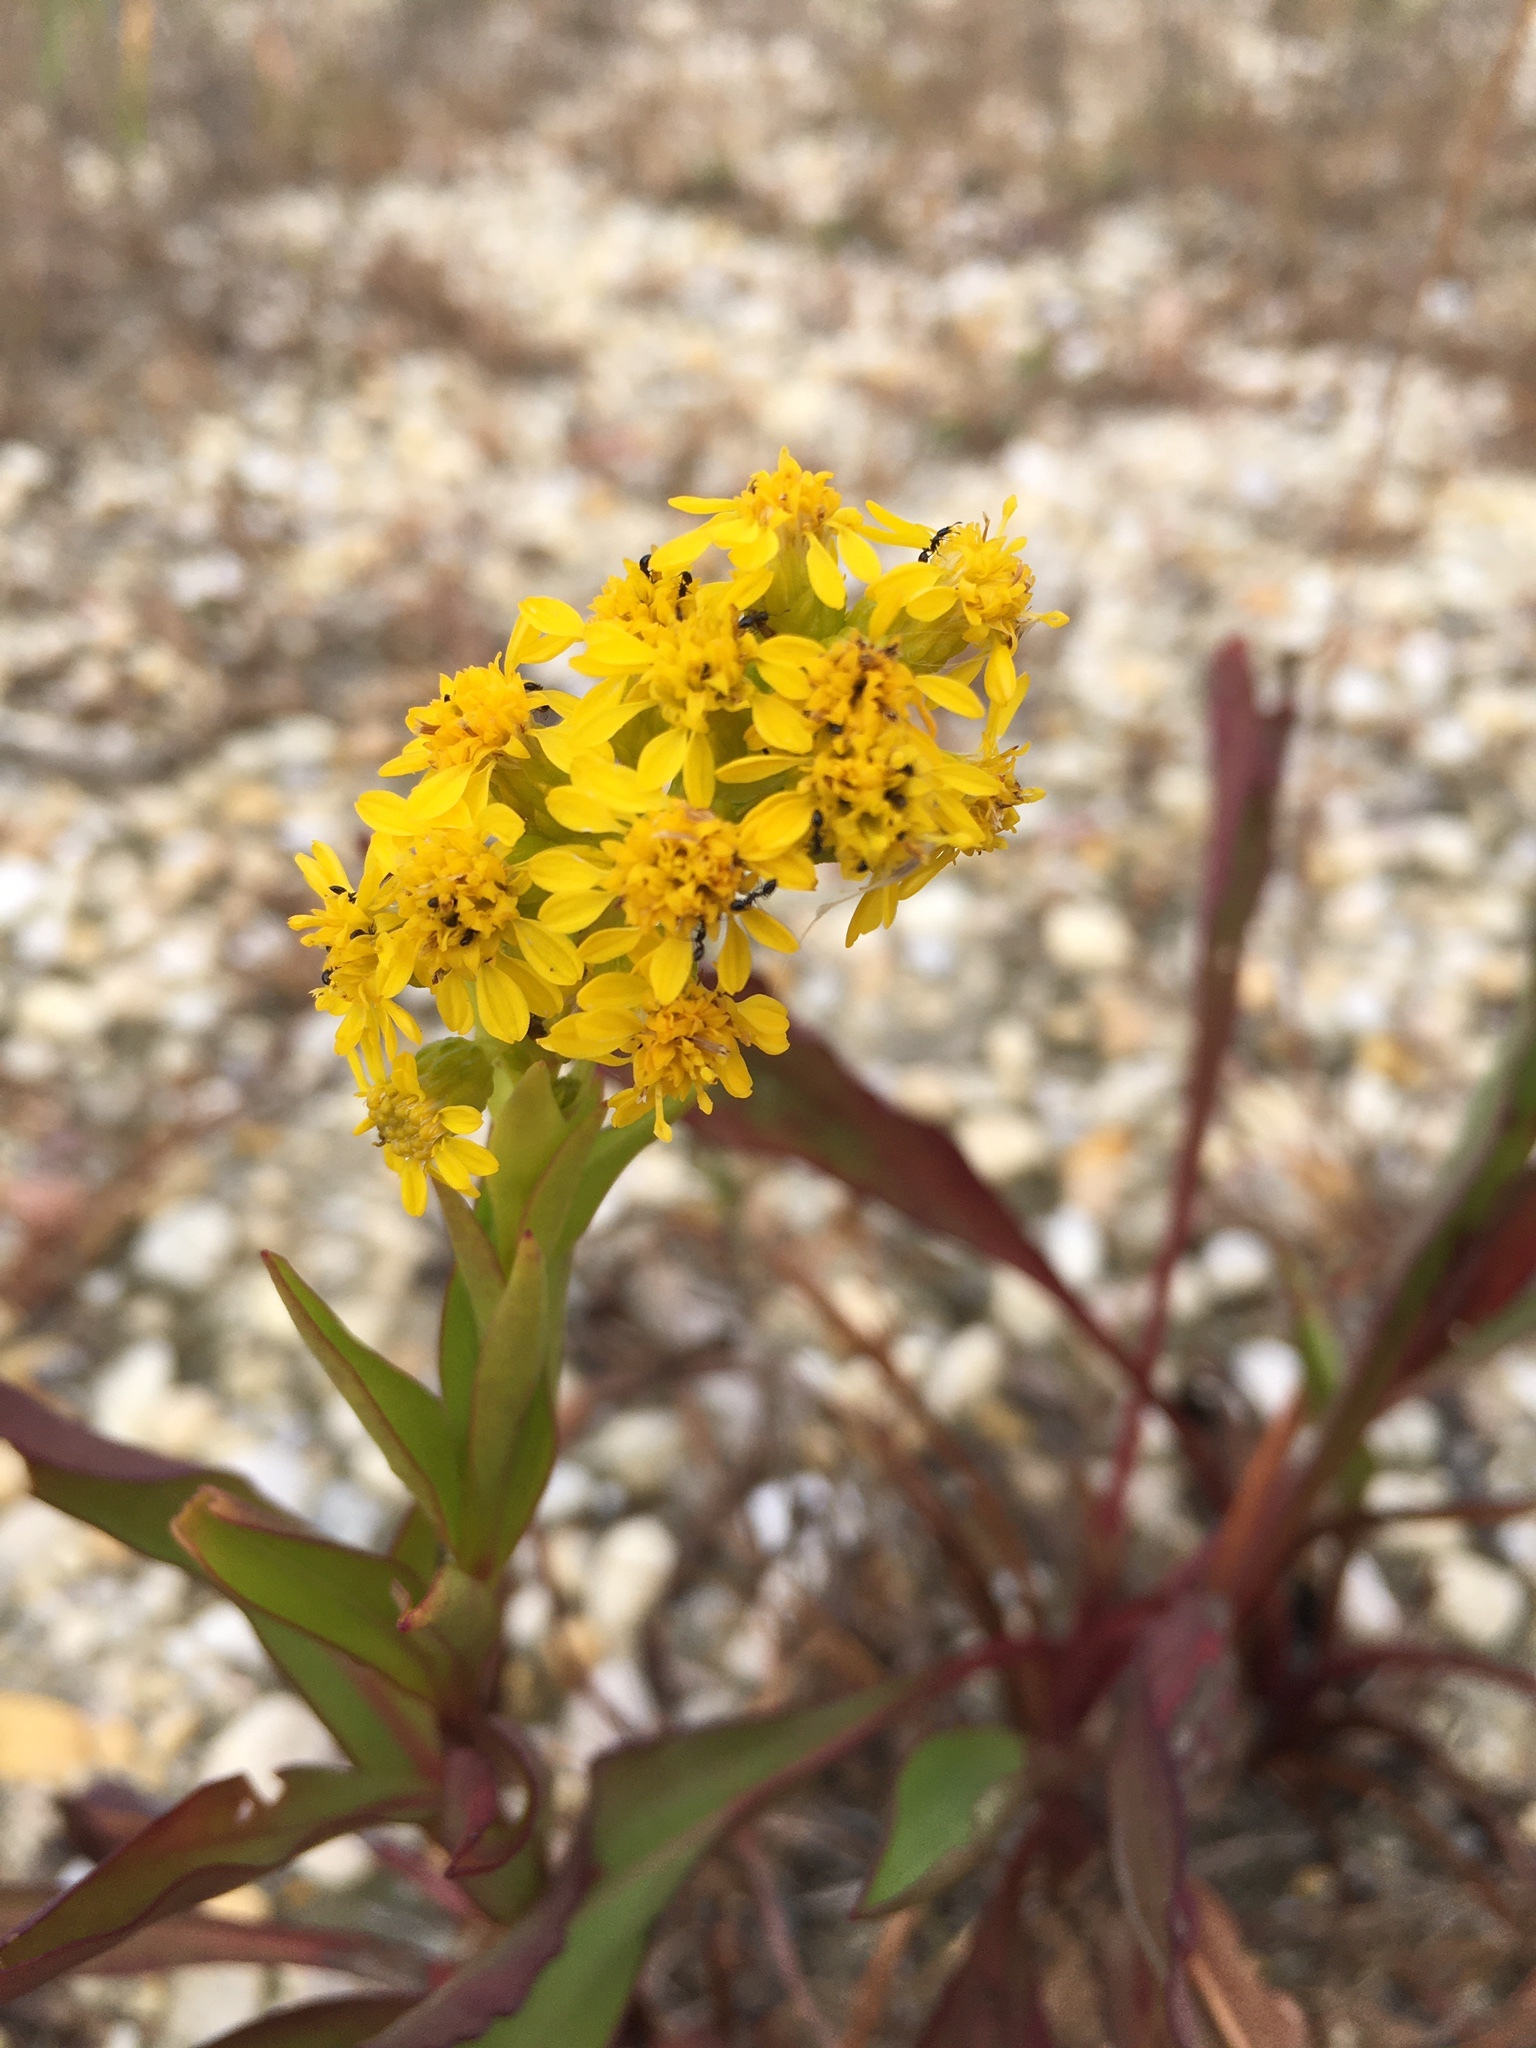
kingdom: Plantae
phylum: Tracheophyta
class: Magnoliopsida
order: Asterales
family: Asteraceae
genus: Solidago
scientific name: Solidago sempervirens
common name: Salt-marsh goldenrod
